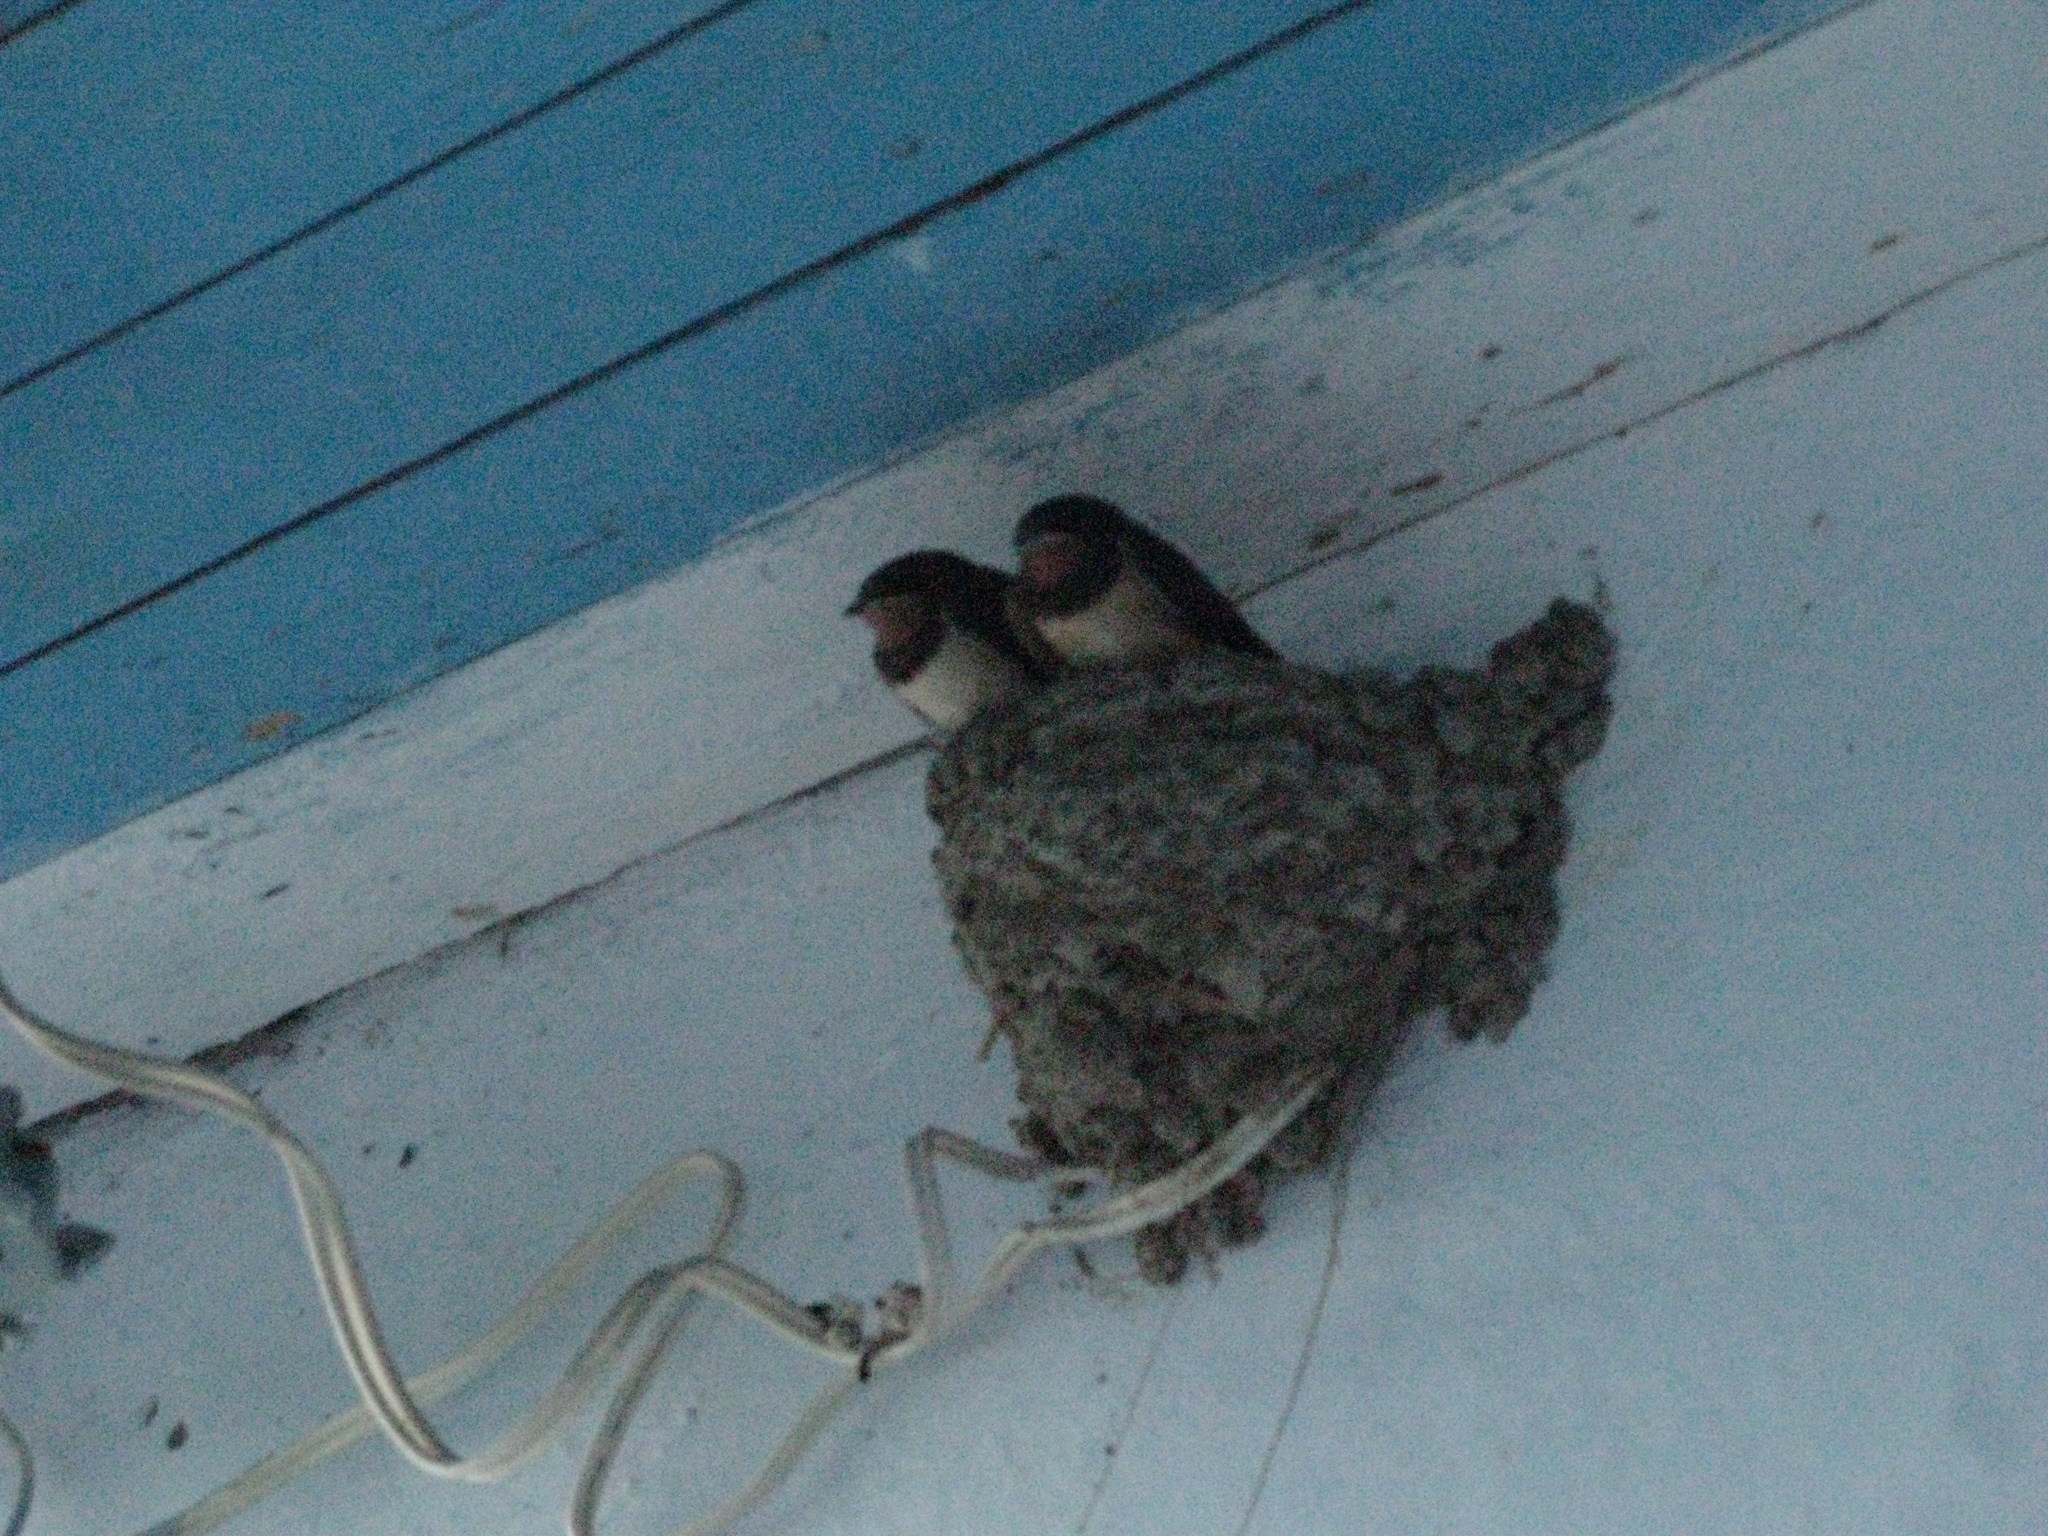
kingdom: Animalia
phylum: Chordata
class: Aves
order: Passeriformes
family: Hirundinidae
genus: Hirundo
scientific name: Hirundo rustica
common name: Barn swallow
